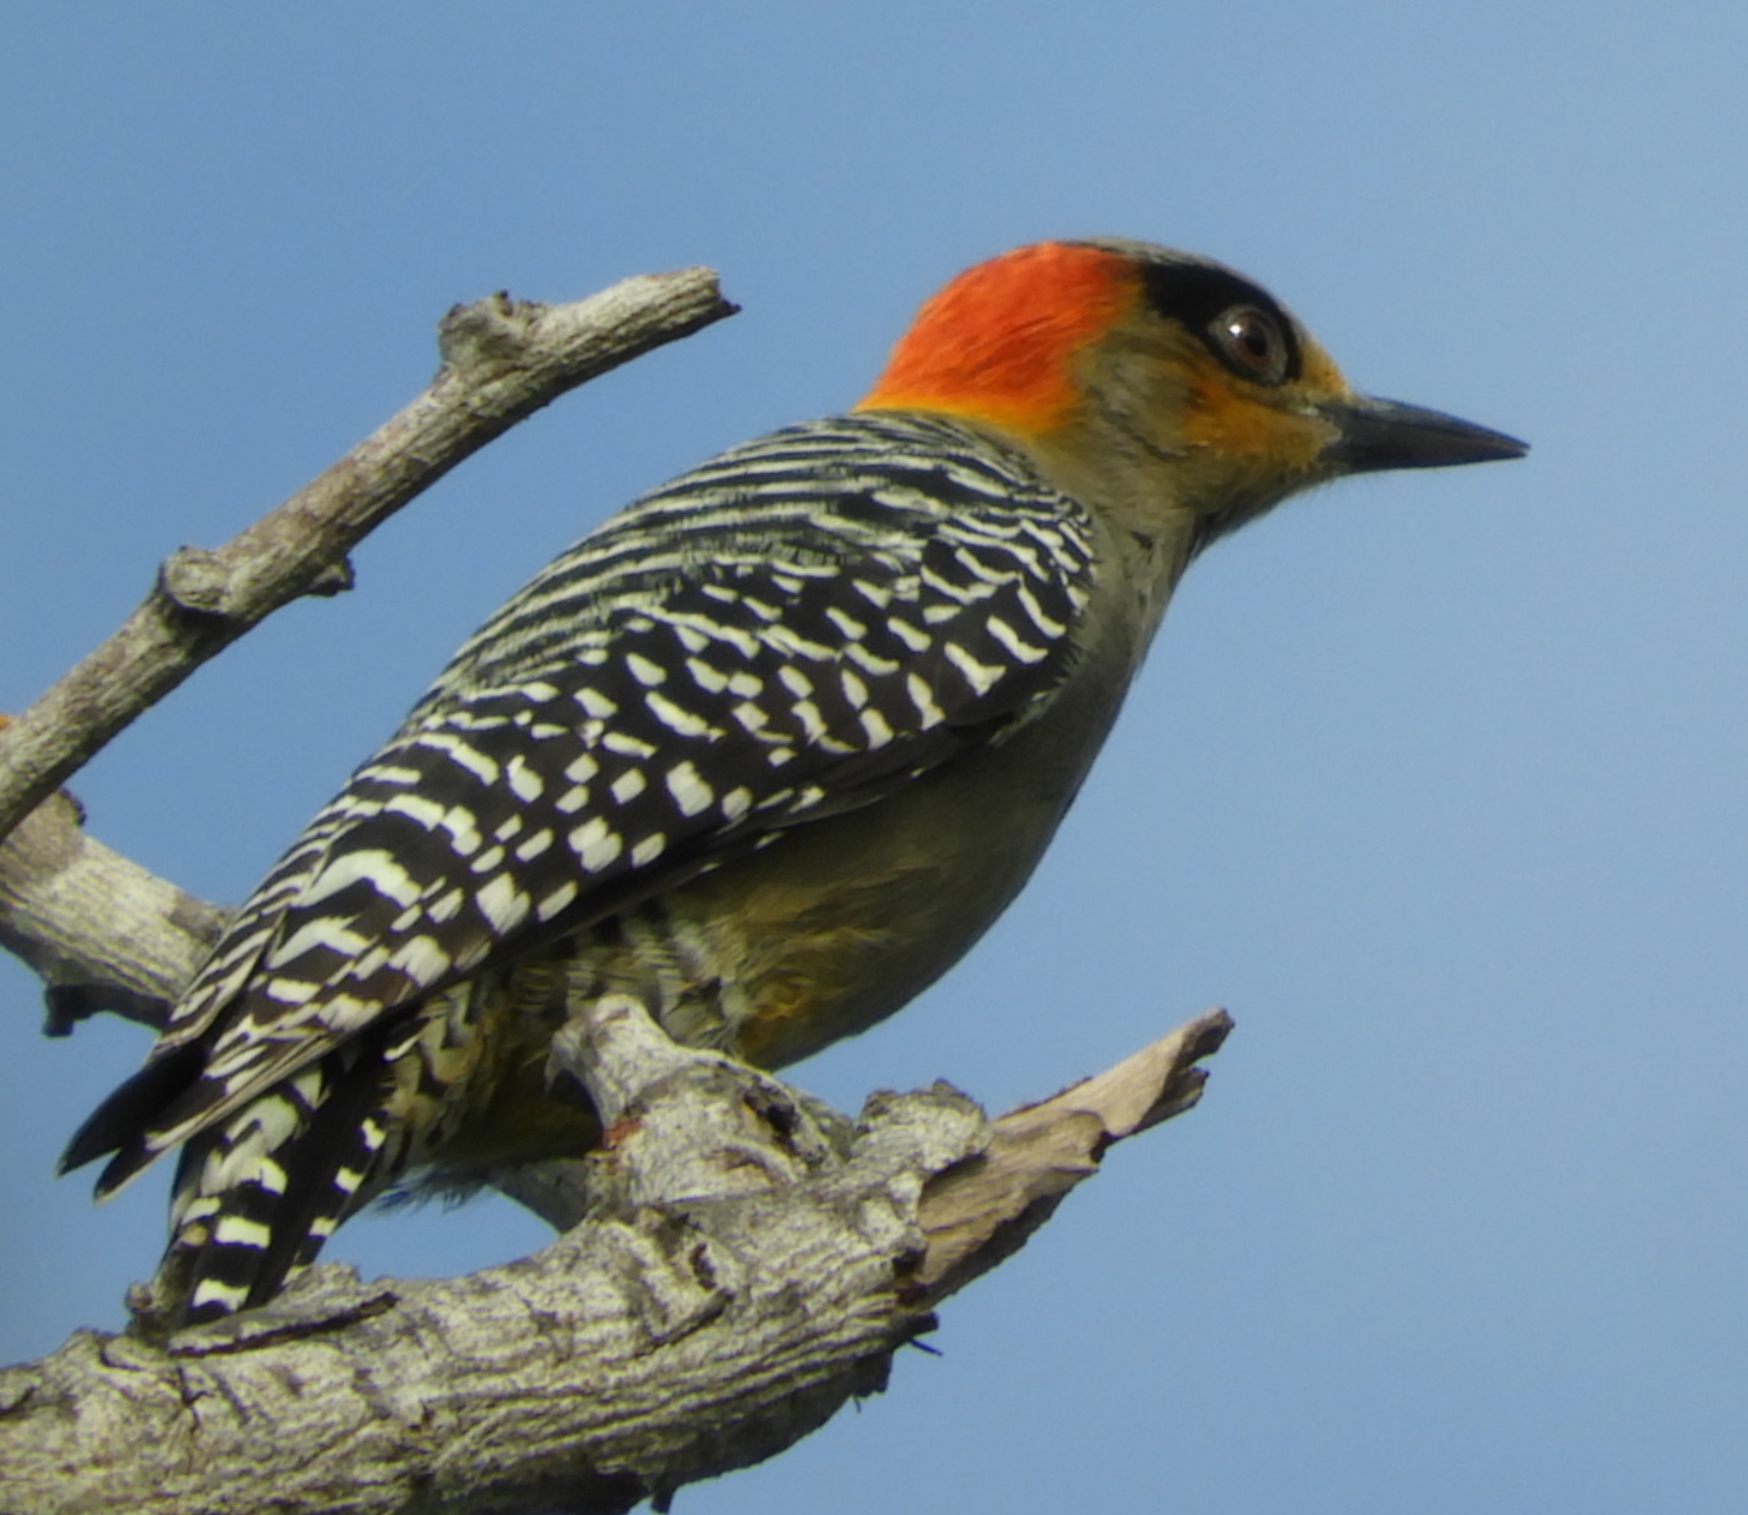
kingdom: Animalia
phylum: Chordata
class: Aves
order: Piciformes
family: Picidae
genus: Melanerpes
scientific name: Melanerpes chrysogenys
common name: Golden-cheeked woodpecker
